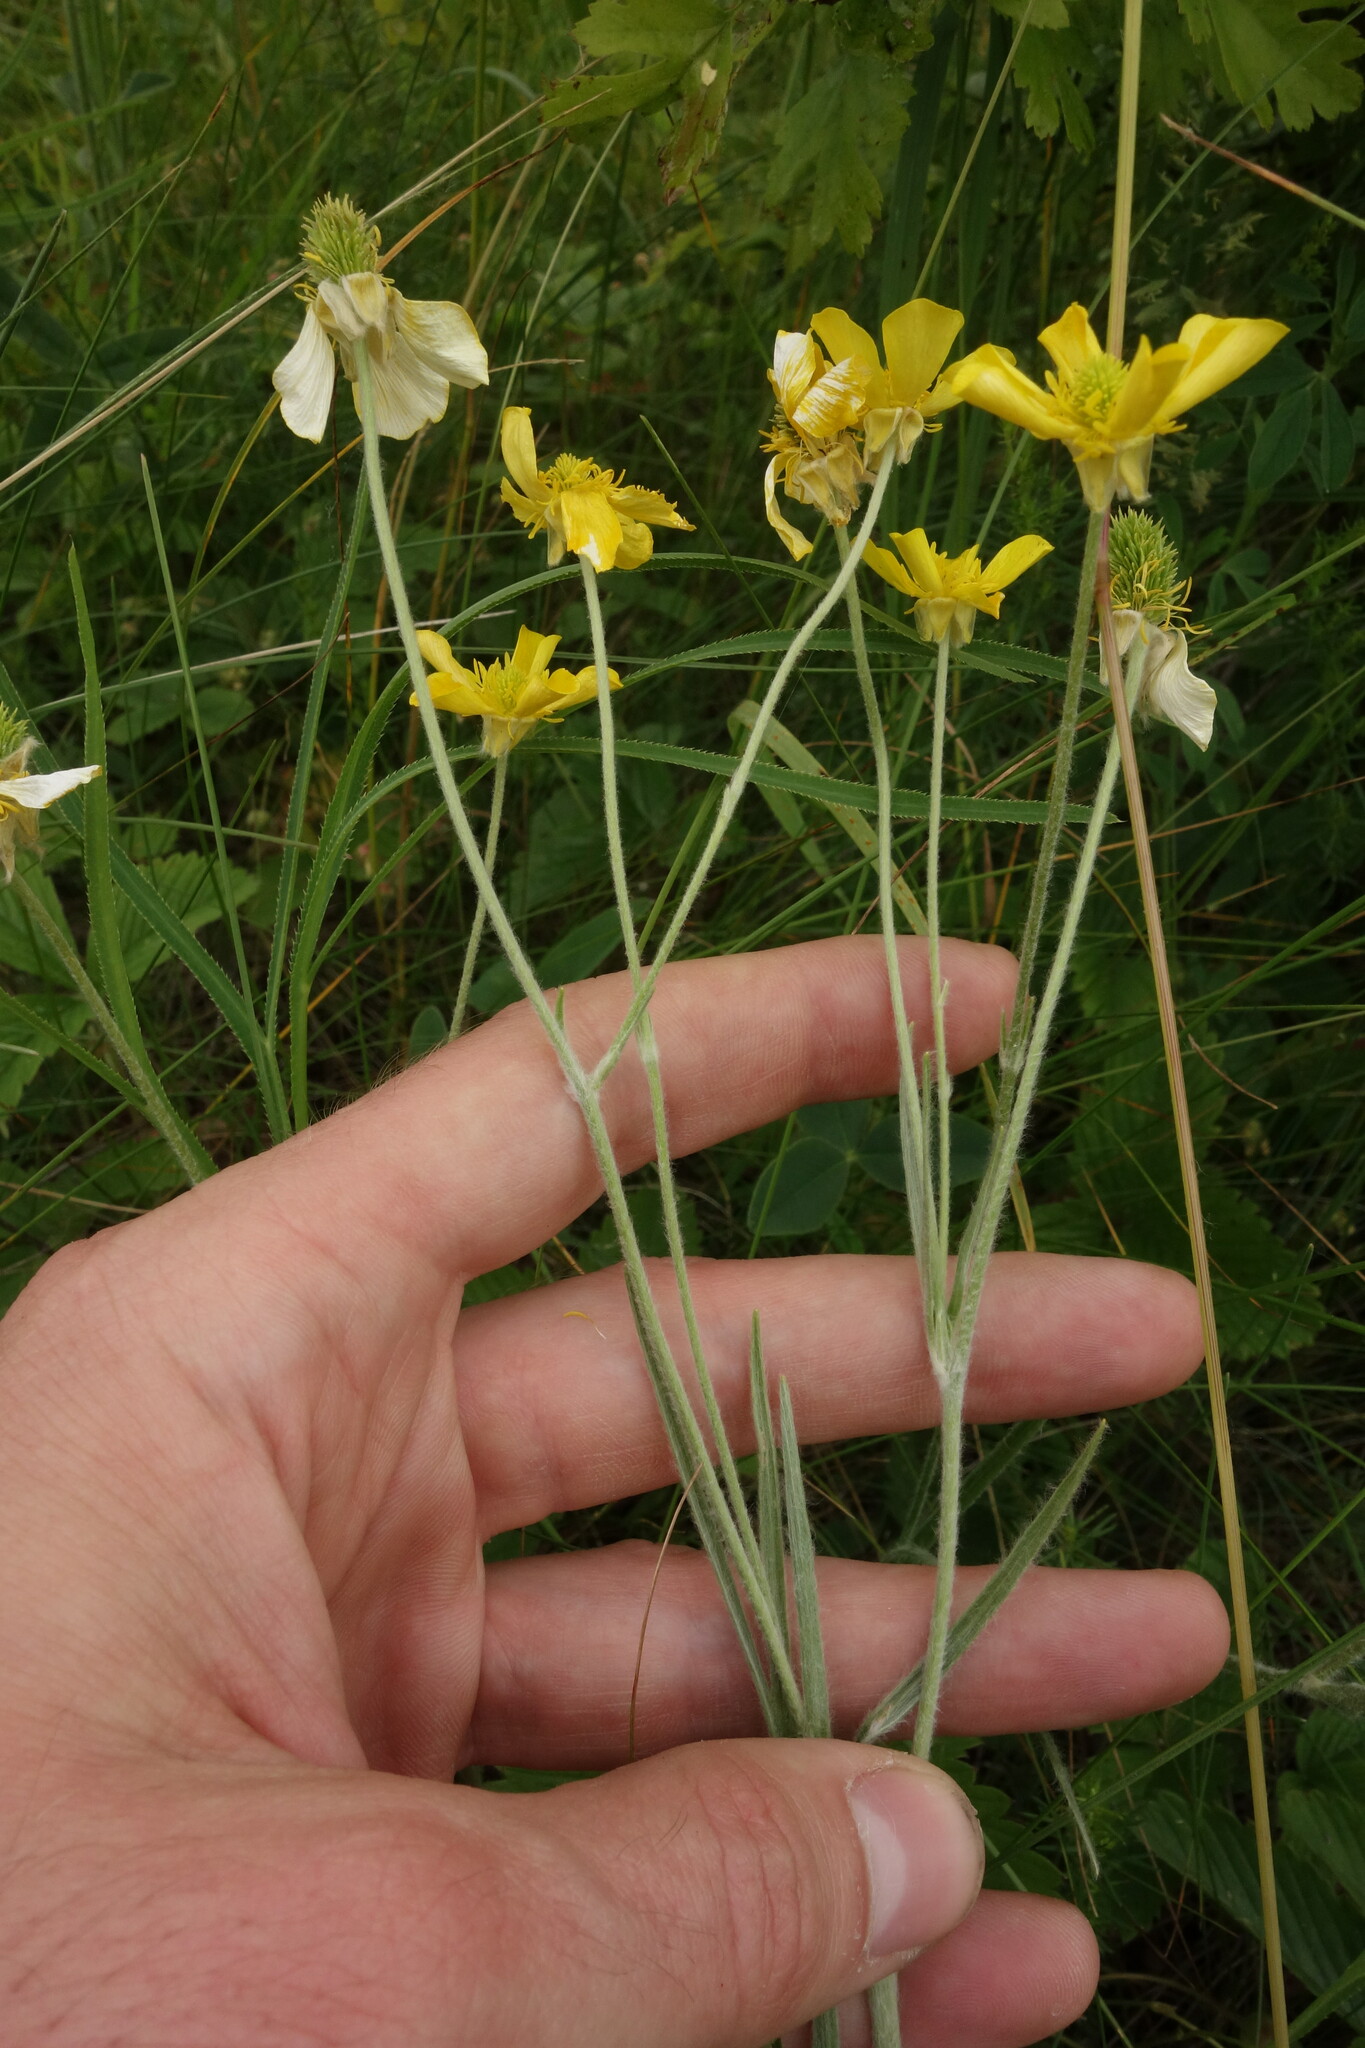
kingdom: Plantae
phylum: Tracheophyta
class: Magnoliopsida
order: Ranunculales
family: Ranunculaceae
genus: Ranunculus
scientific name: Ranunculus illyricus
